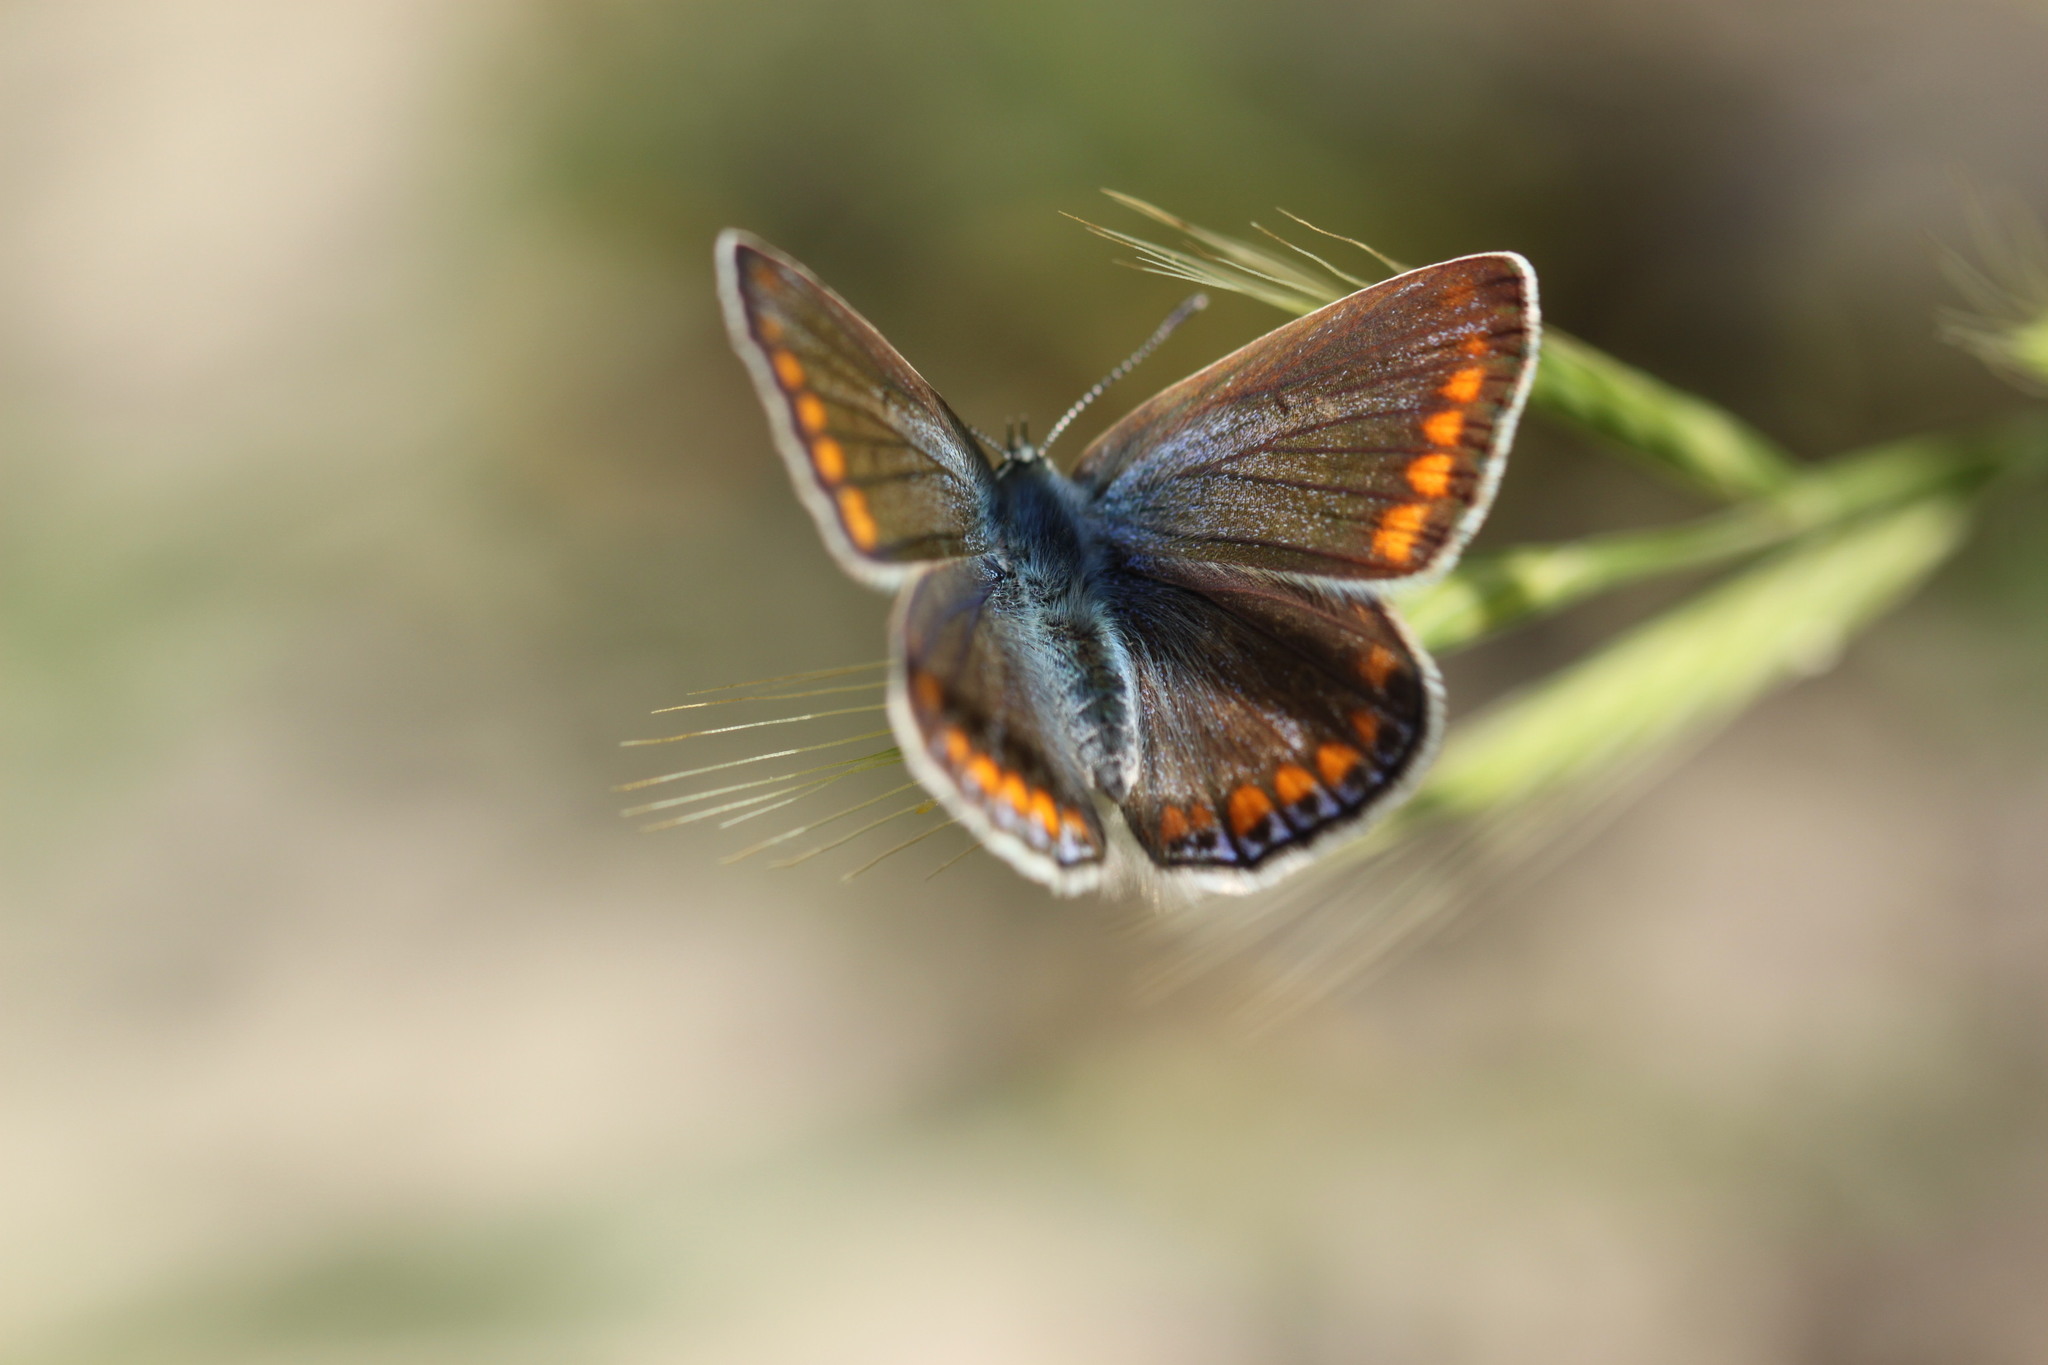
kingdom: Animalia
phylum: Arthropoda
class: Insecta
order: Lepidoptera
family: Lycaenidae
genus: Polyommatus
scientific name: Polyommatus icarus
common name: Common blue
